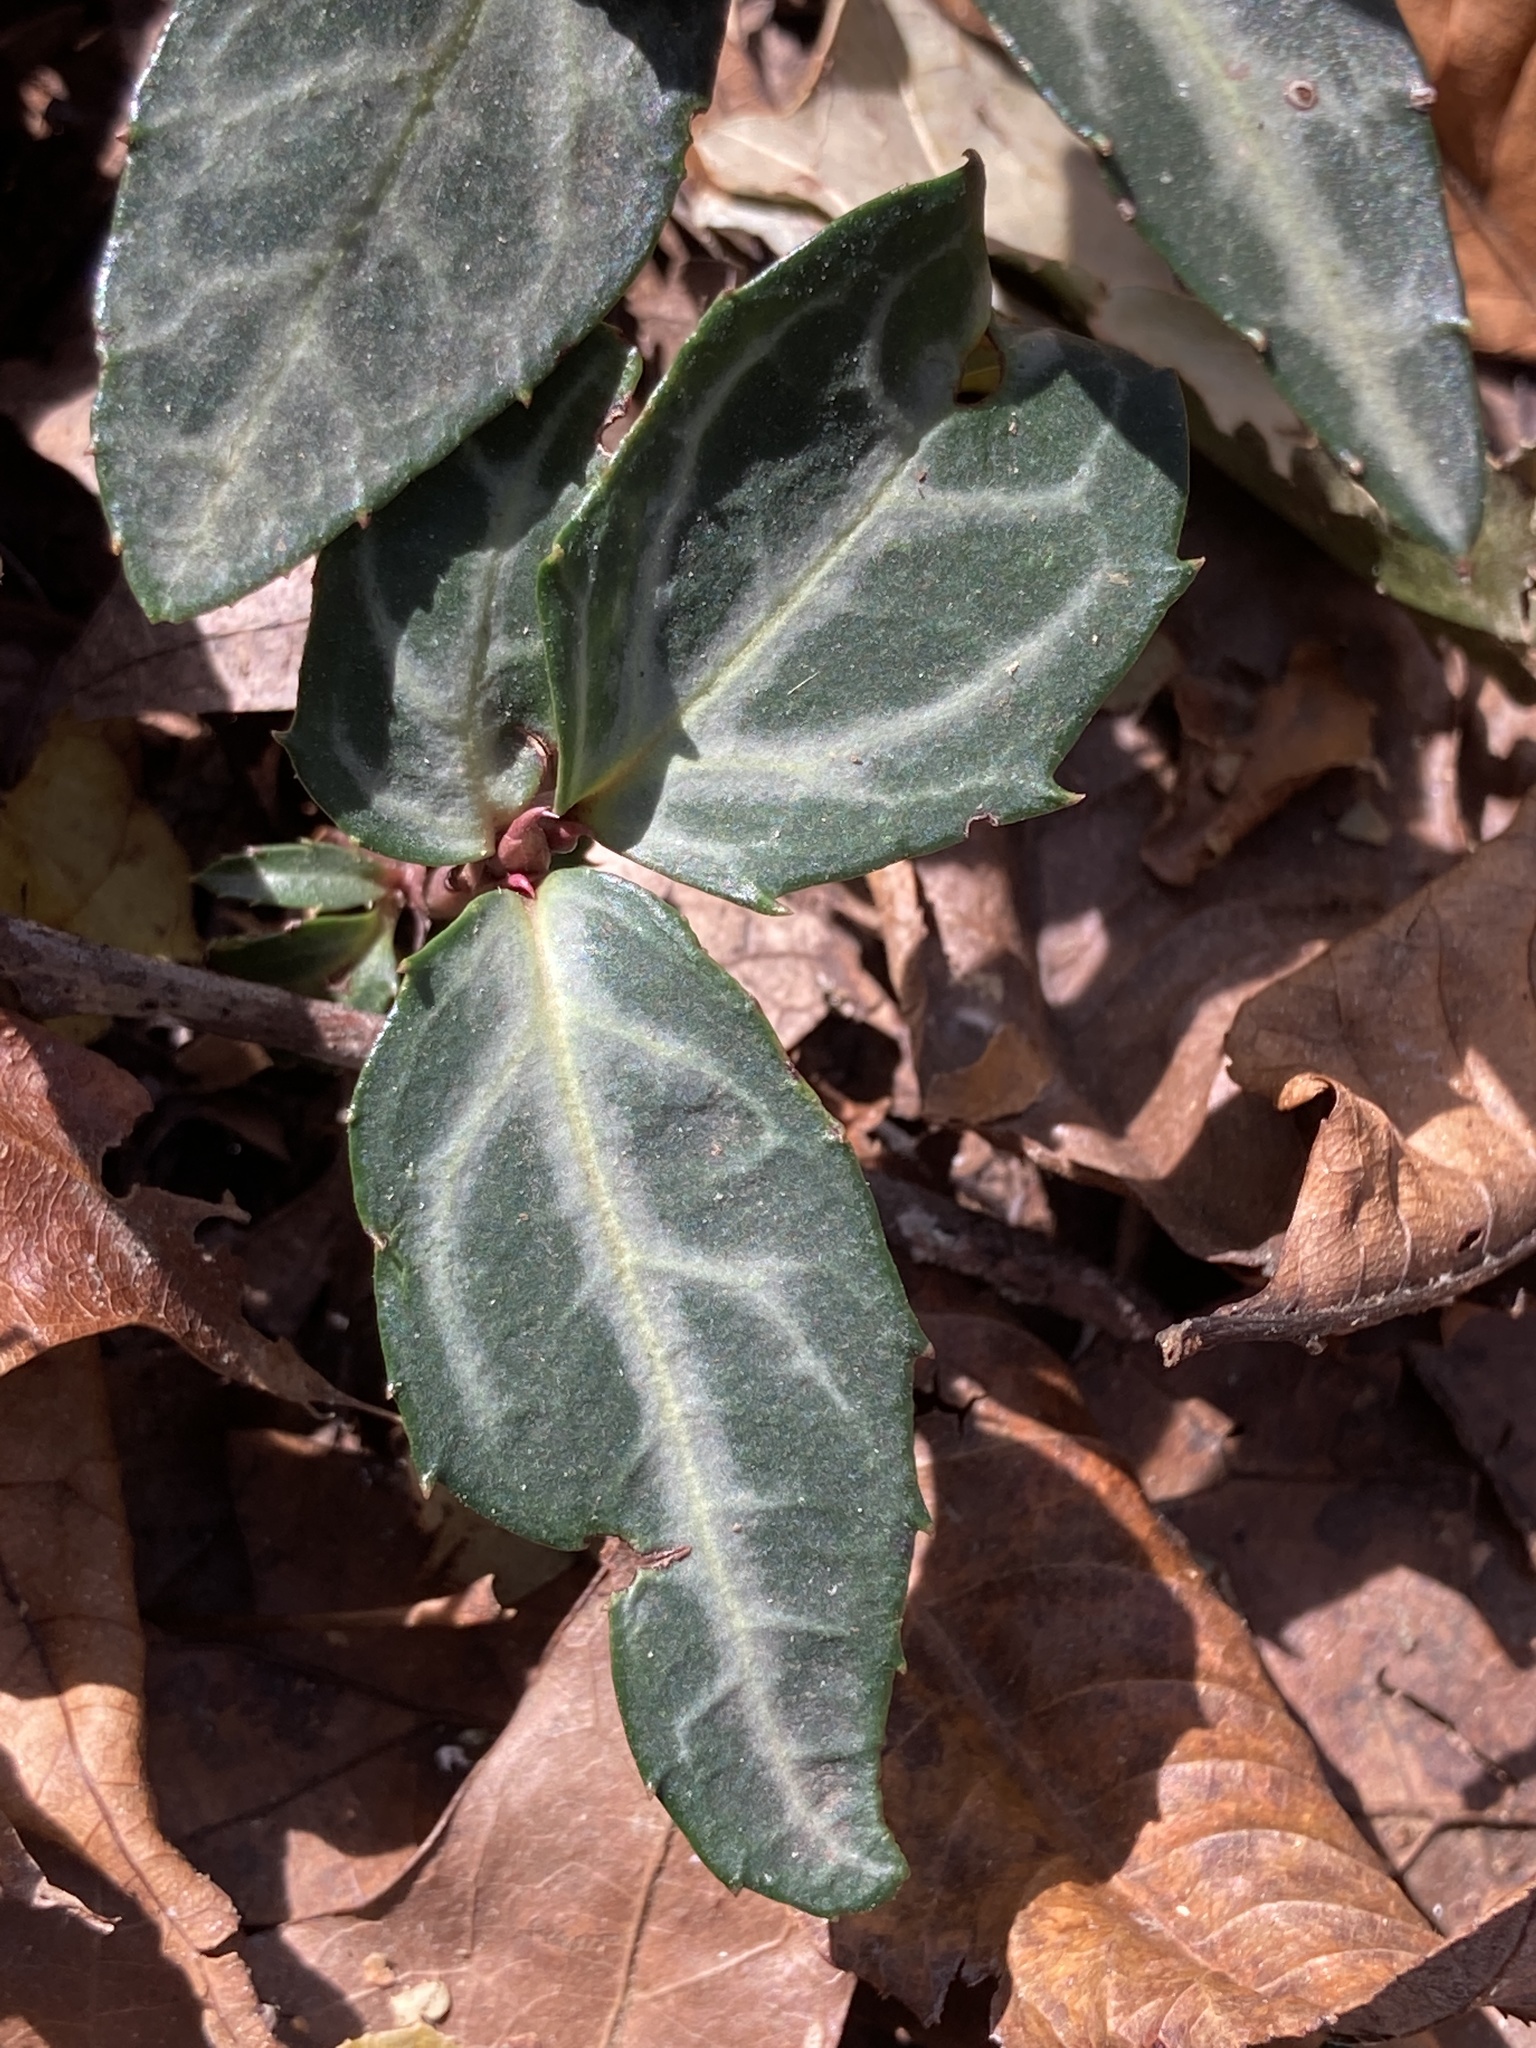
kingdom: Plantae
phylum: Tracheophyta
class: Magnoliopsida
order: Ericales
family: Ericaceae
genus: Chimaphila
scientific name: Chimaphila maculata
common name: Spotted pipsissewa
